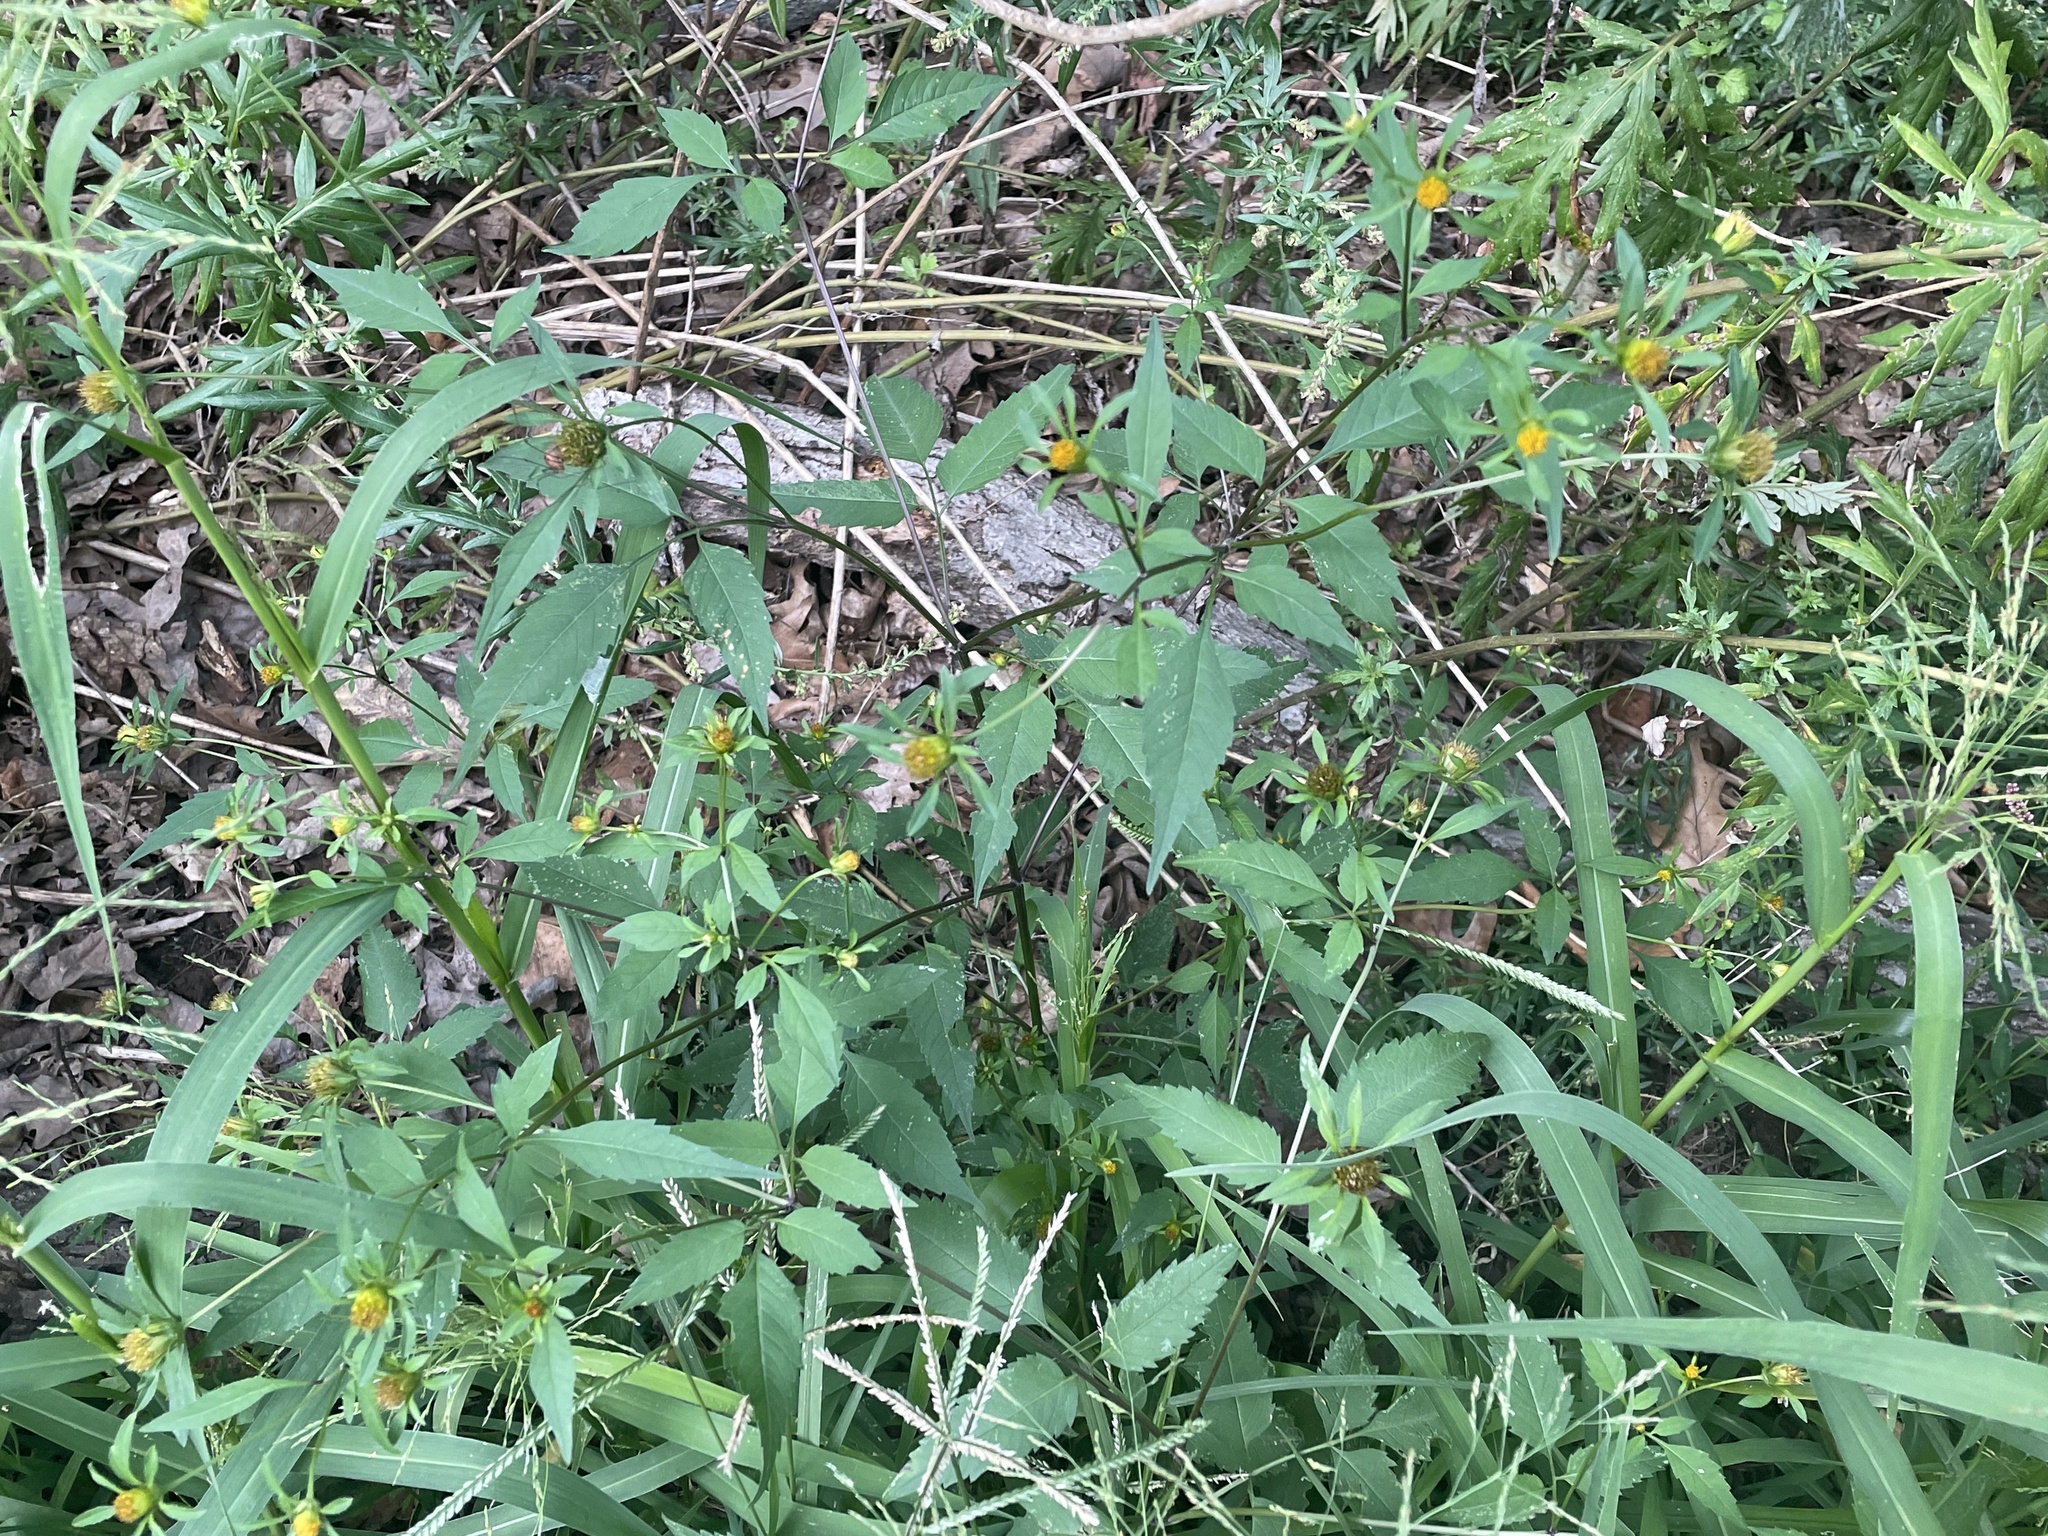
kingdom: Plantae
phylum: Tracheophyta
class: Magnoliopsida
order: Asterales
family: Asteraceae
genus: Bidens
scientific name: Bidens frondosa
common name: Beggarticks
